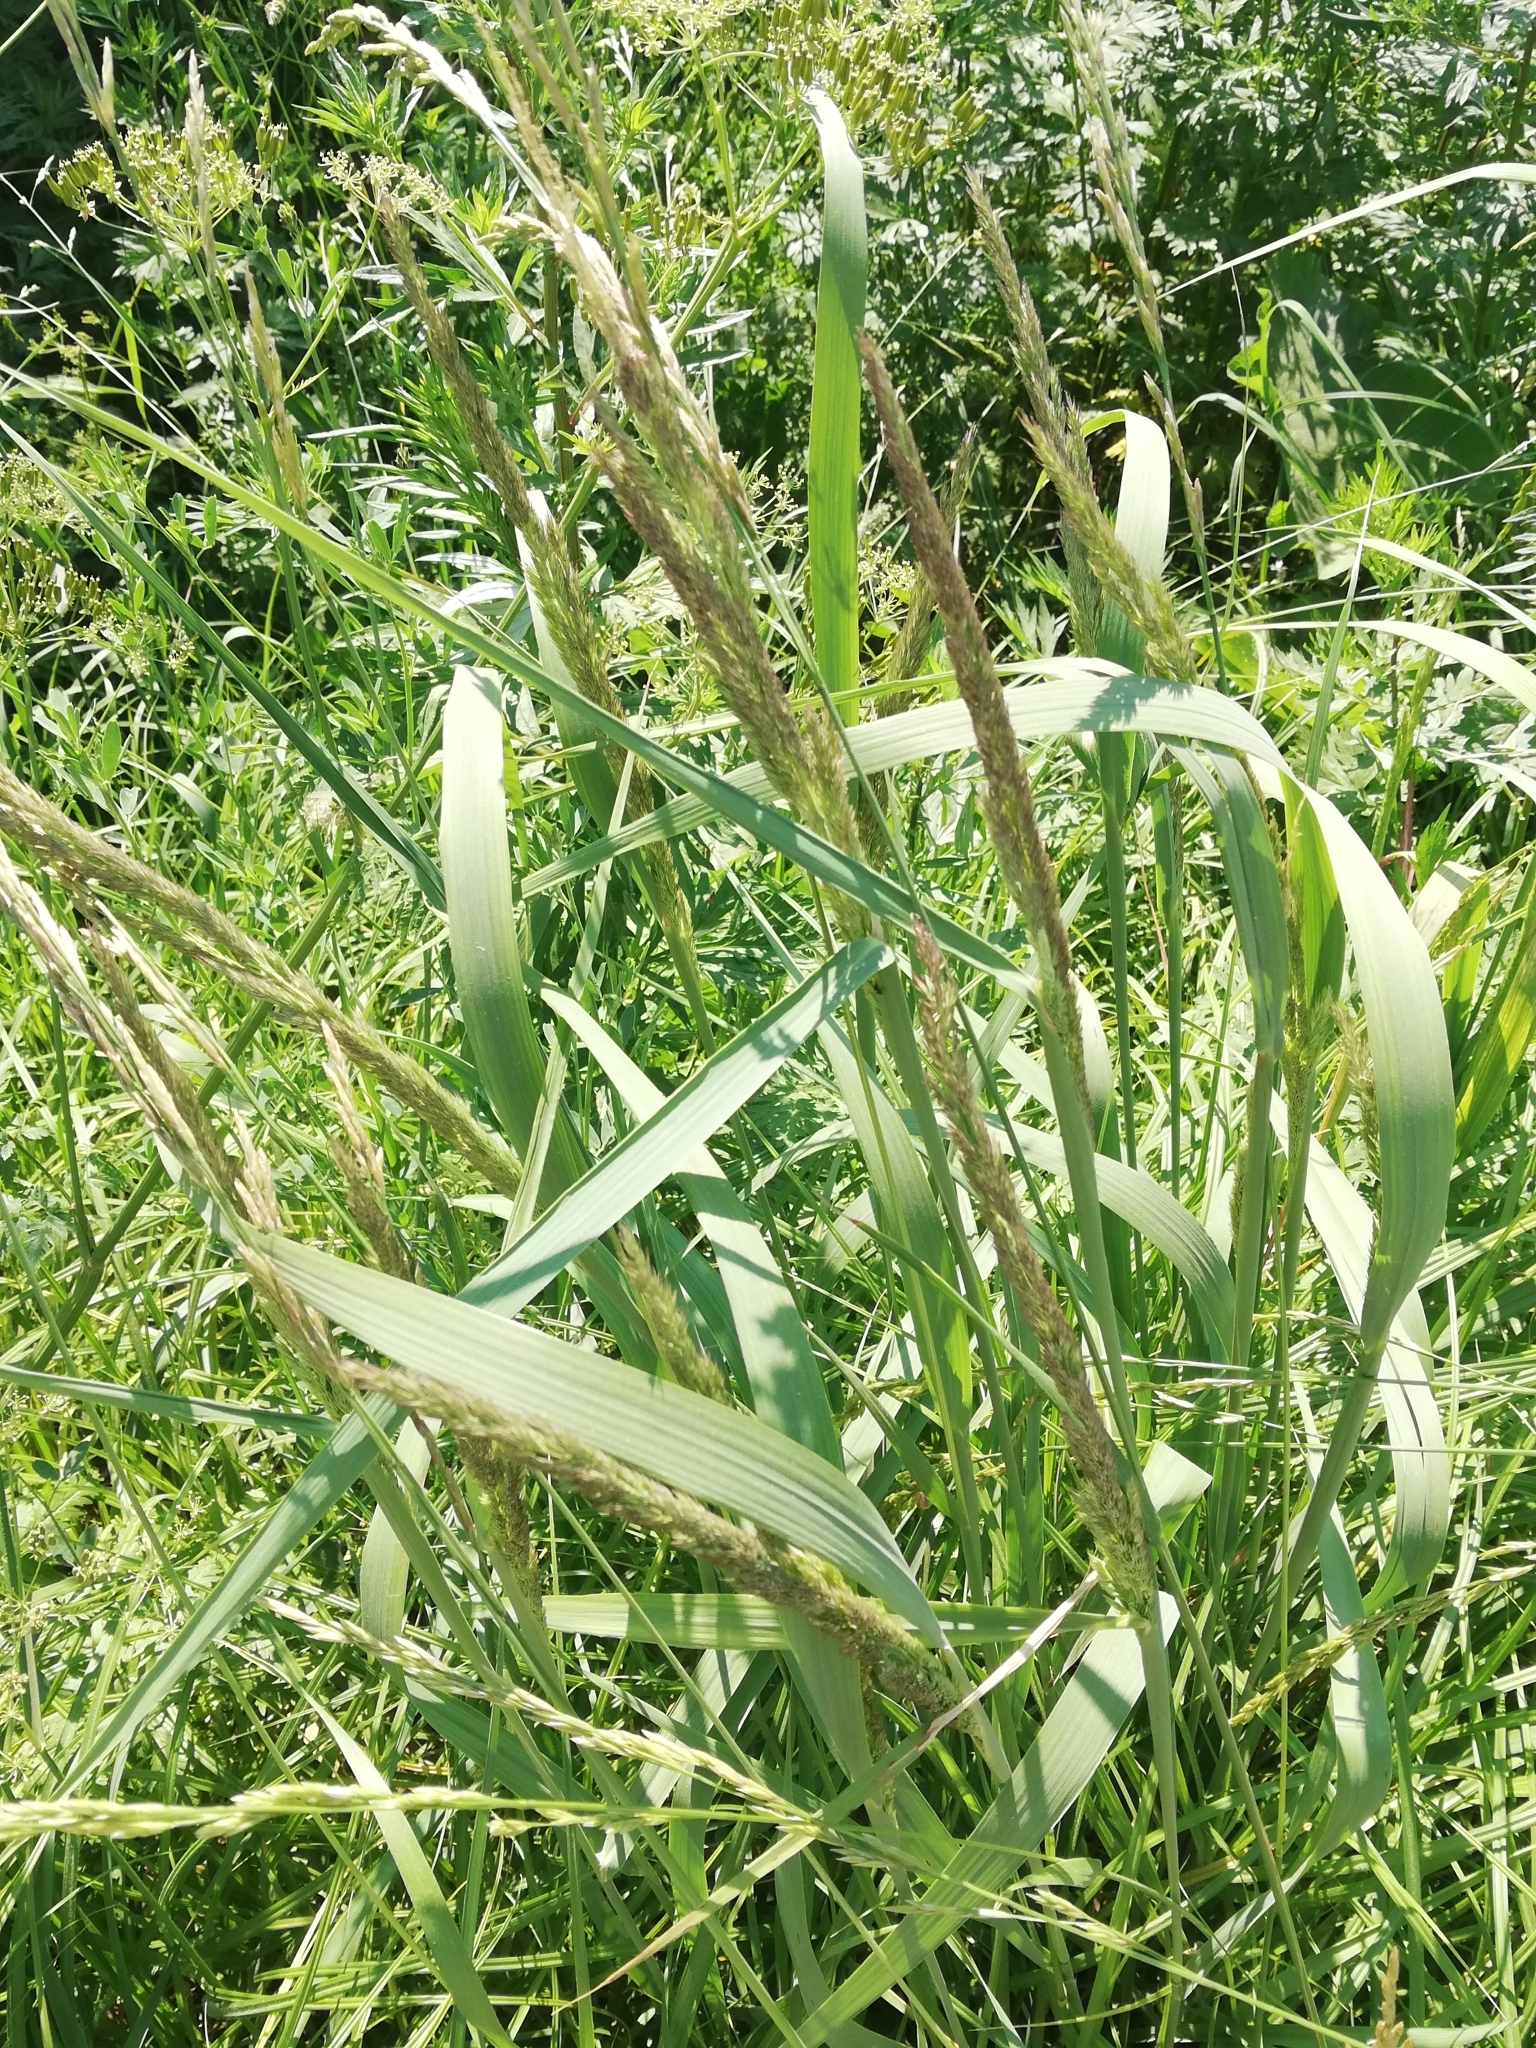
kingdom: Plantae
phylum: Tracheophyta
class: Liliopsida
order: Poales
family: Poaceae
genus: Calamagrostis
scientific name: Calamagrostis epigejos
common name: Wood small-reed
